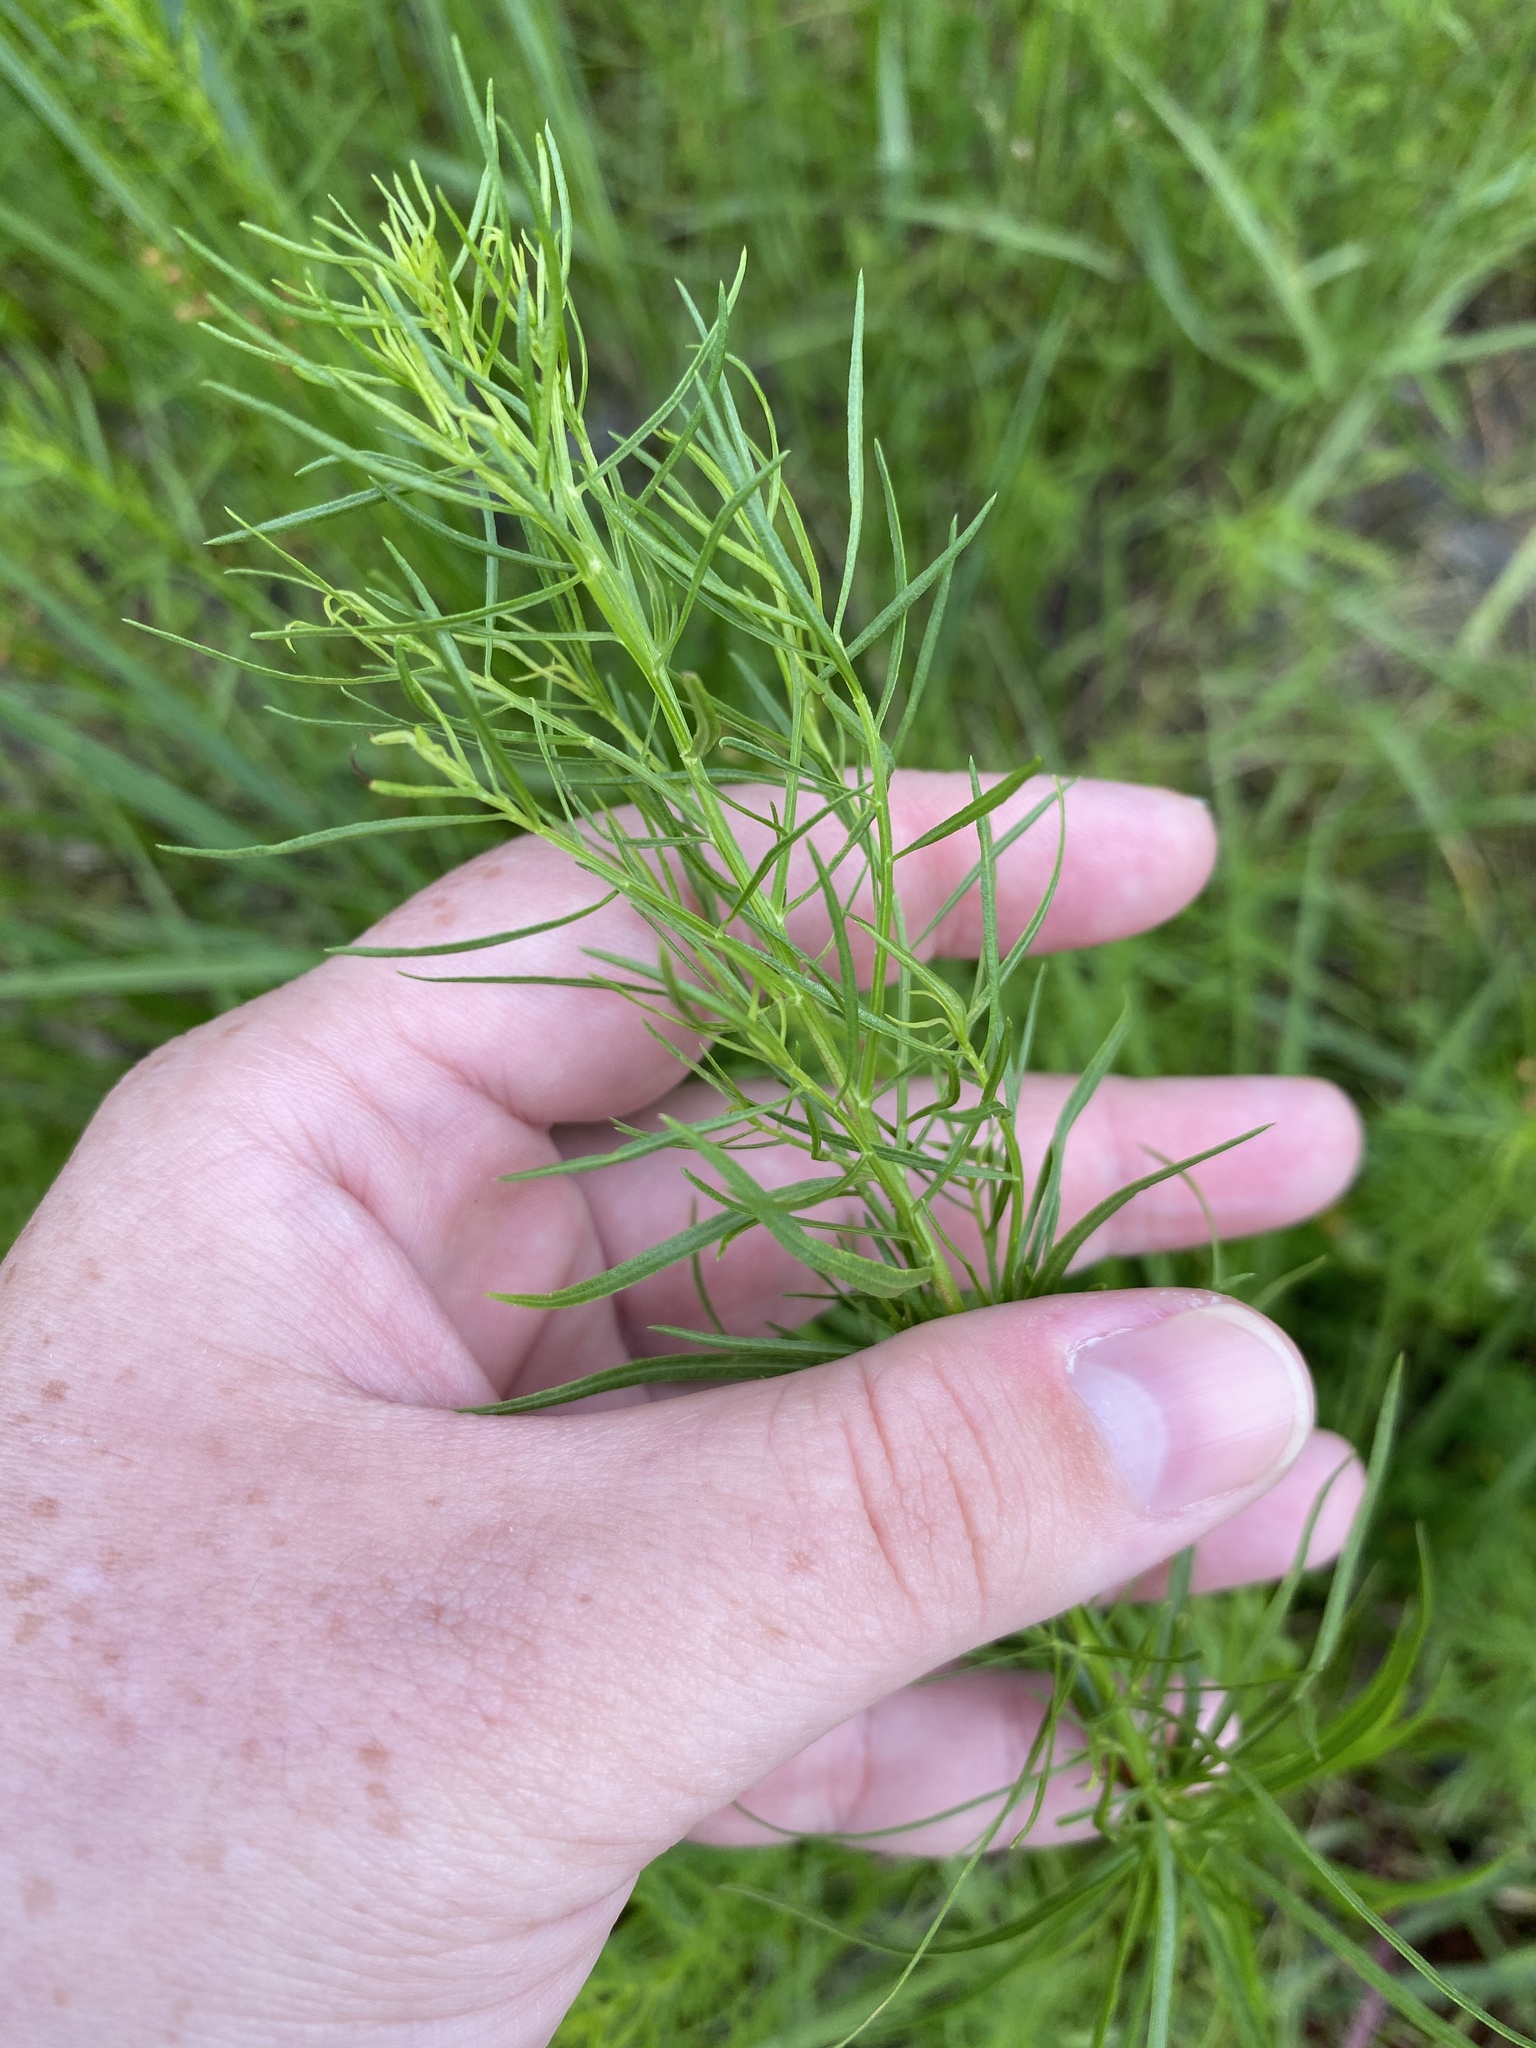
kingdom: Plantae
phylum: Tracheophyta
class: Magnoliopsida
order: Asterales
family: Asteraceae
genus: Euthamia
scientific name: Euthamia caroliniana
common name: Coastal plain goldentop
